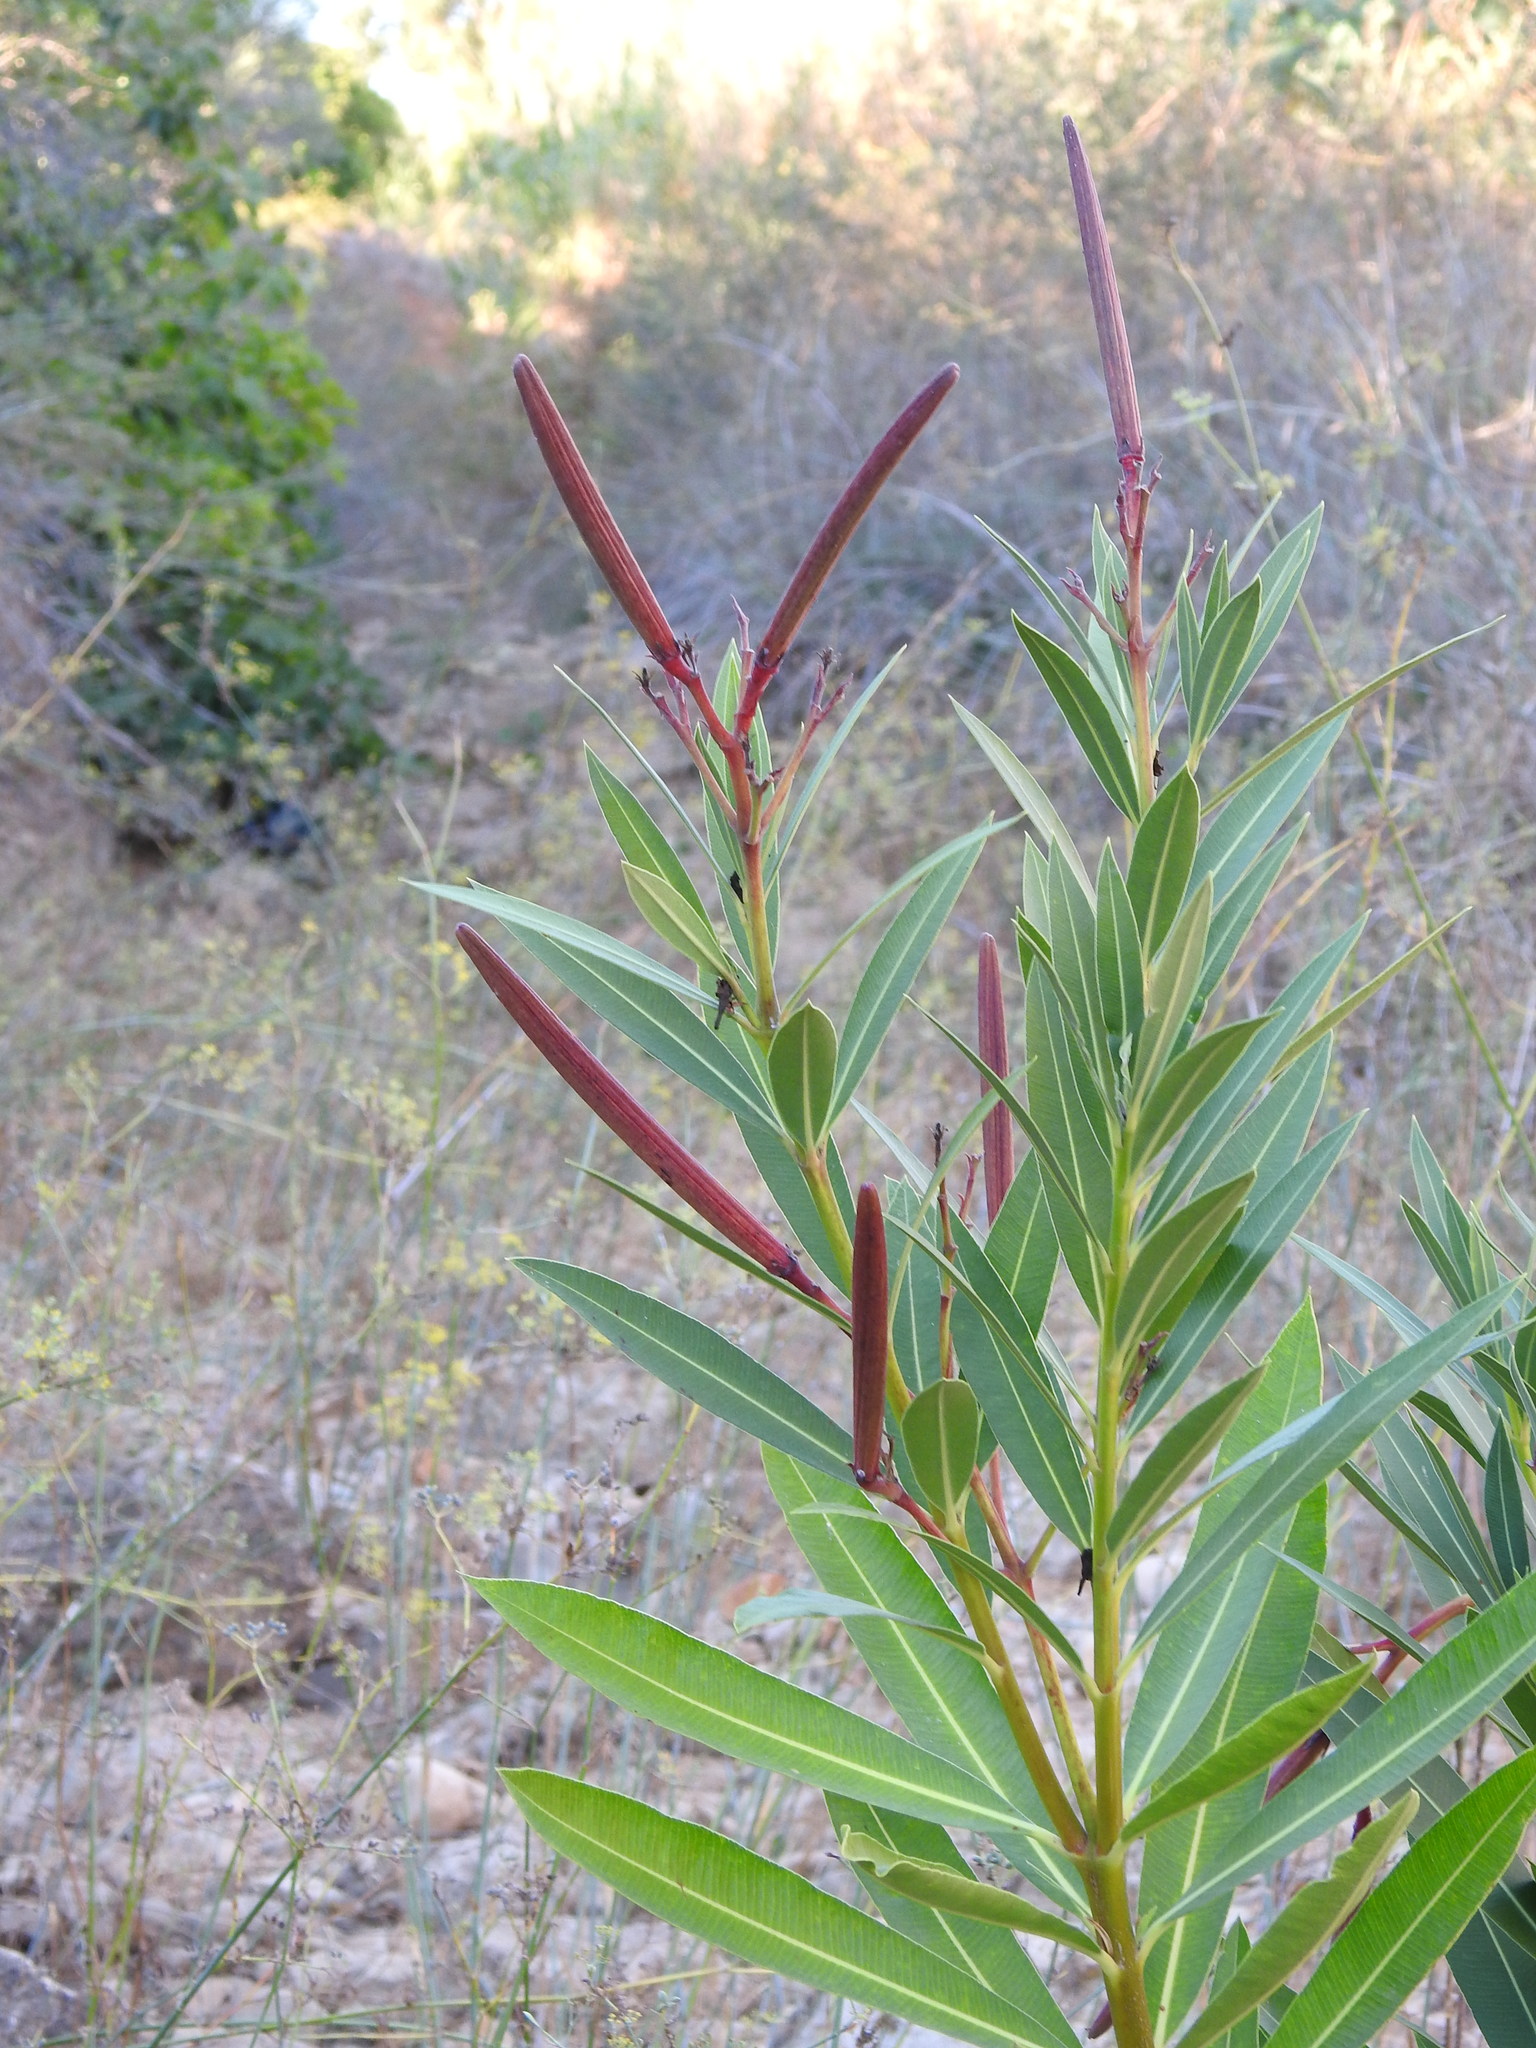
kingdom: Plantae
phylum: Tracheophyta
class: Magnoliopsida
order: Gentianales
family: Apocynaceae
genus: Nerium
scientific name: Nerium oleander
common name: Oleander
